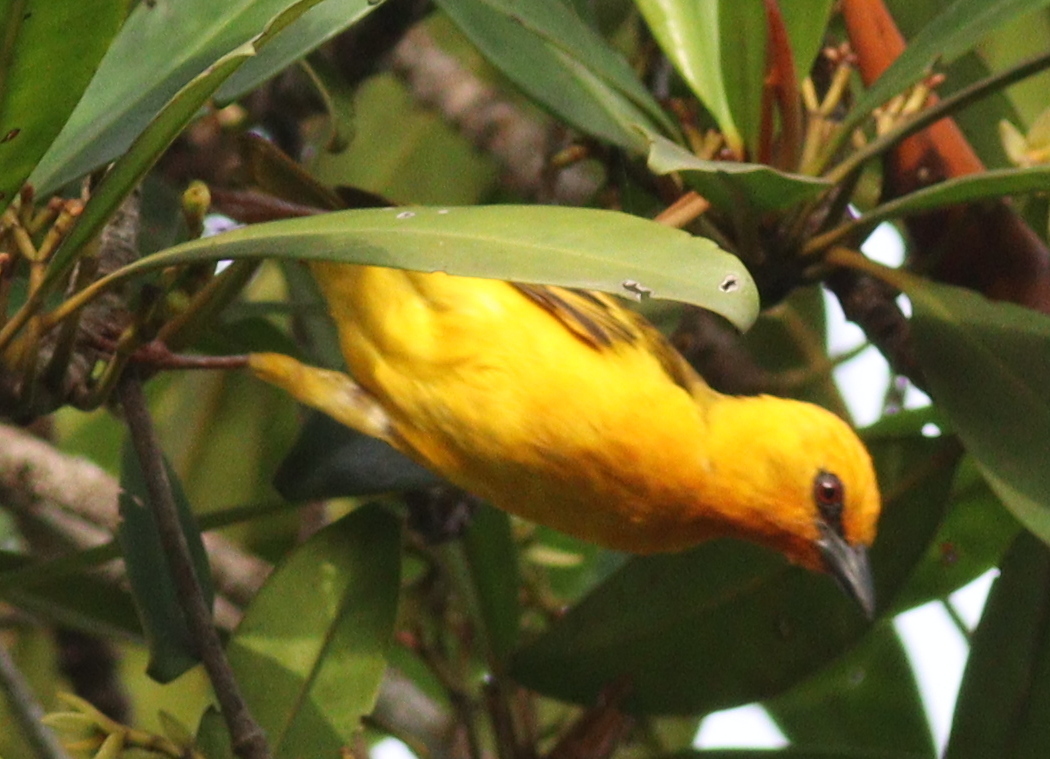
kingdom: Animalia
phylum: Chordata
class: Aves
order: Passeriformes
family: Ploceidae
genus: Ploceus
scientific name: Ploceus aurantius
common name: Orange weaver
